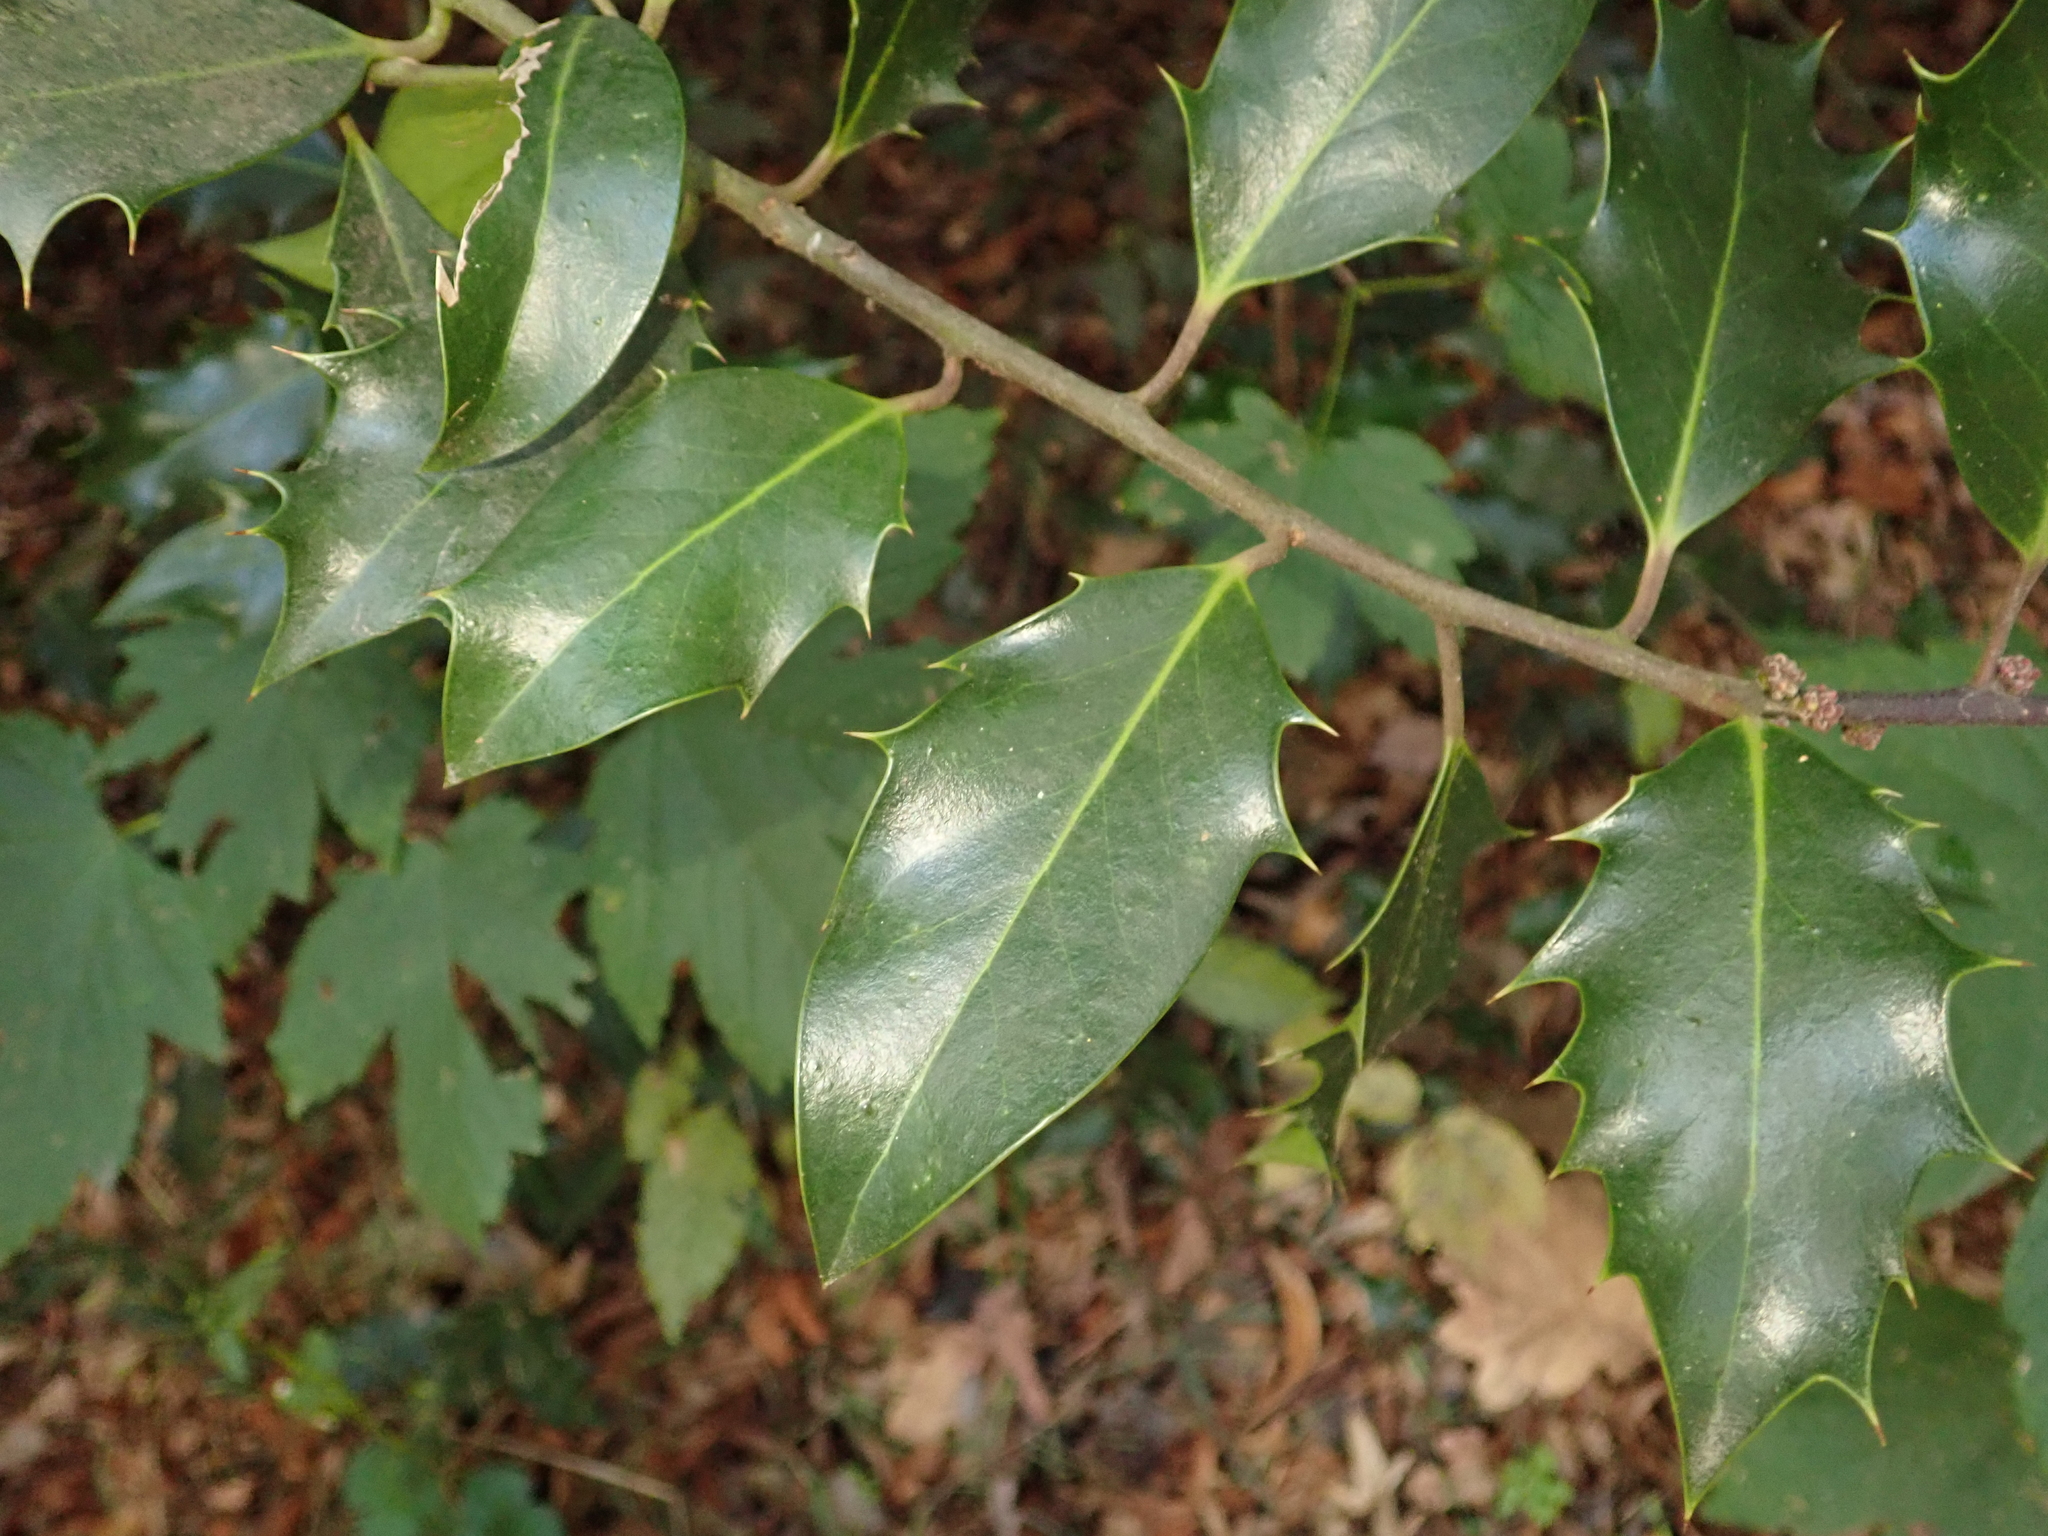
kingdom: Plantae
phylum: Tracheophyta
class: Magnoliopsida
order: Aquifoliales
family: Aquifoliaceae
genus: Ilex
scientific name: Ilex aquifolium
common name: English holly
